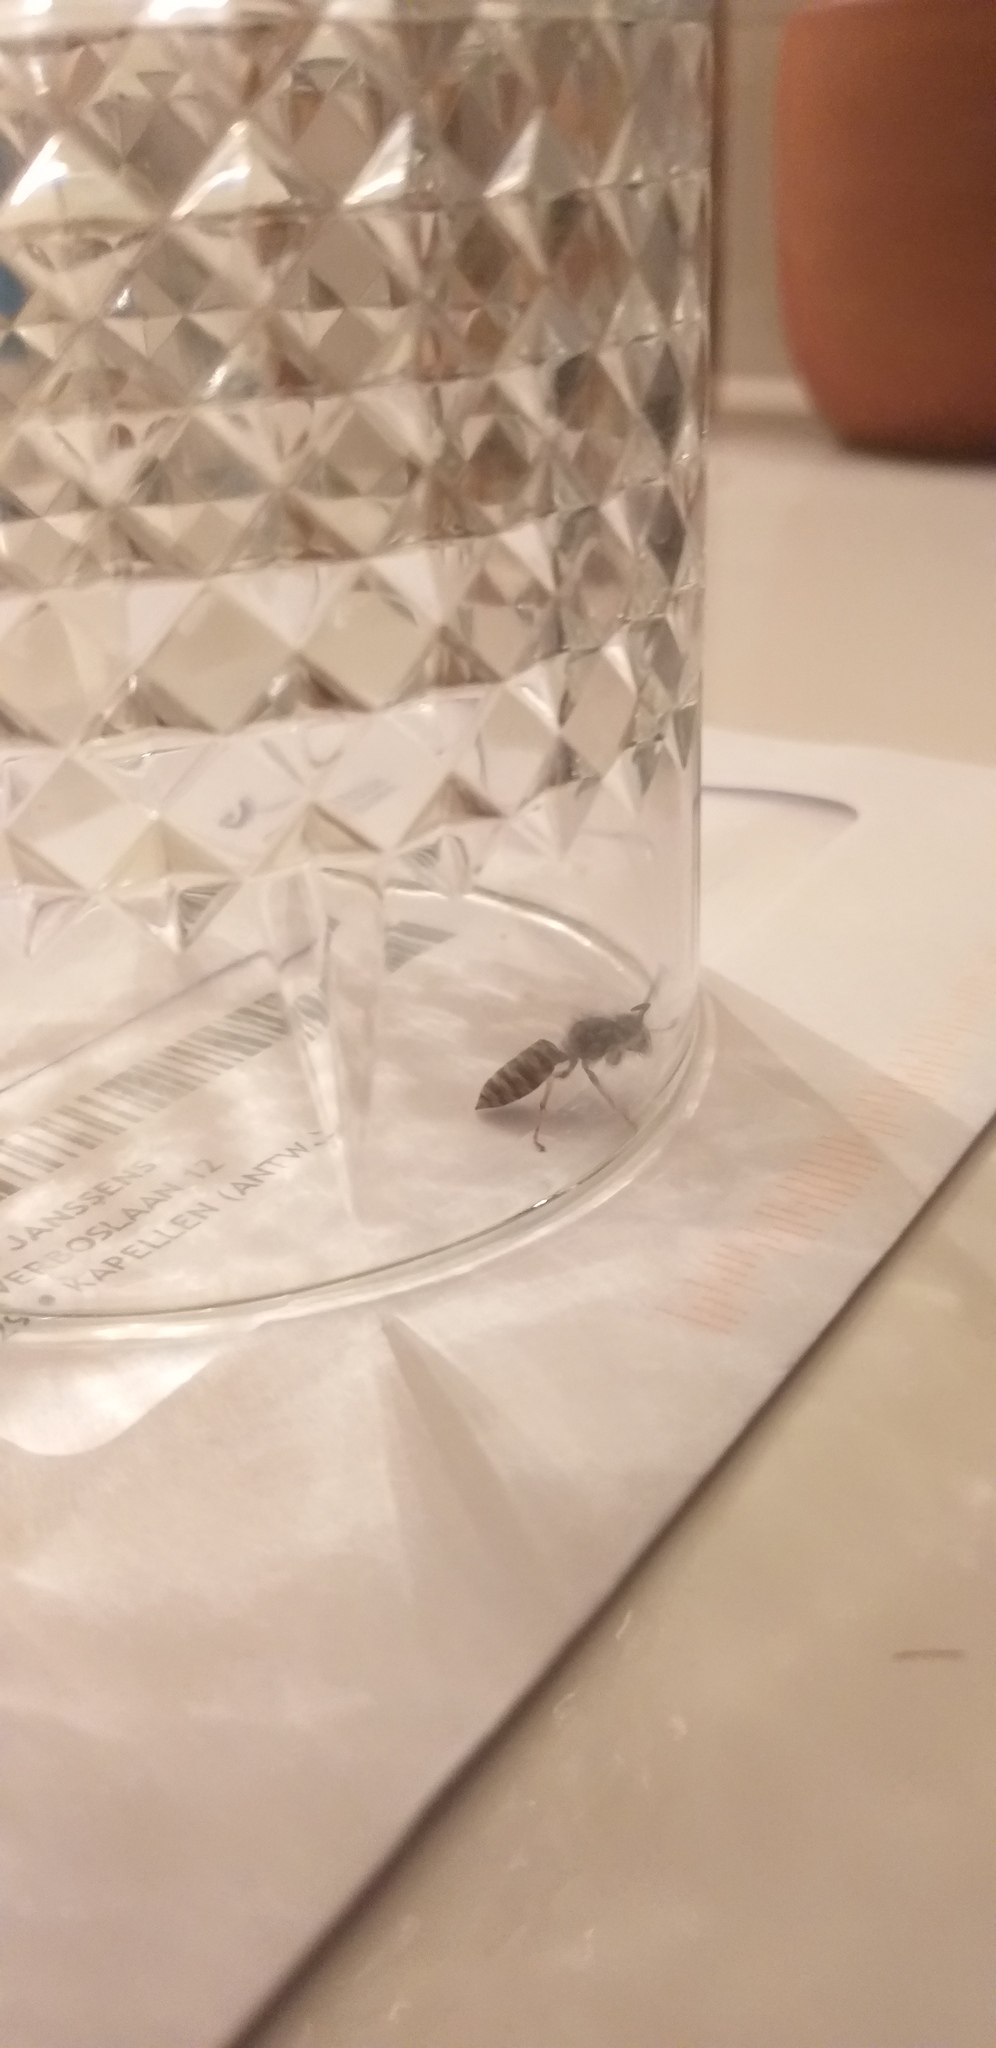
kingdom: Animalia
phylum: Arthropoda
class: Insecta
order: Hymenoptera
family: Vespidae
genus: Vespula
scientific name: Vespula vulgaris
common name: Common wasp
